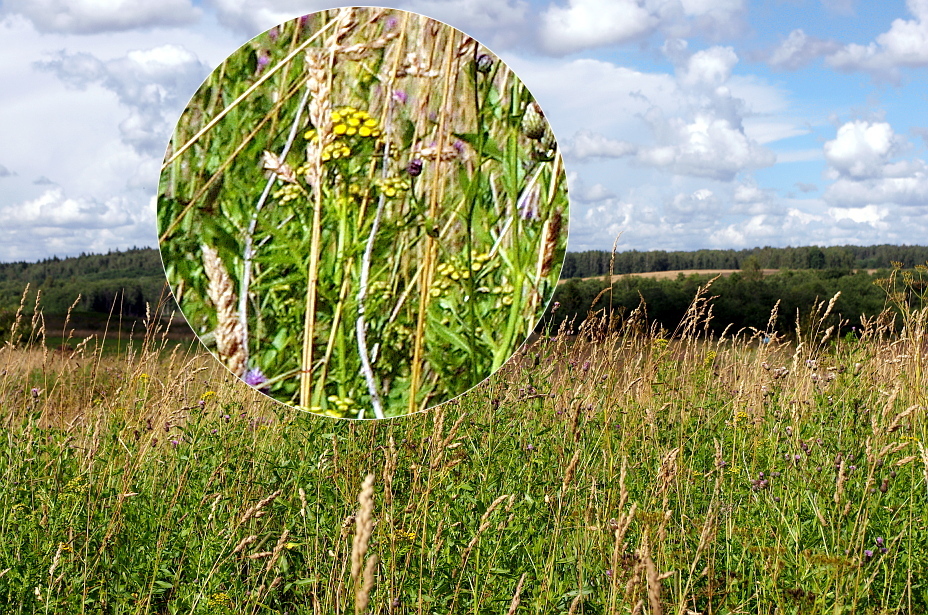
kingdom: Plantae
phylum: Tracheophyta
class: Magnoliopsida
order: Asterales
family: Asteraceae
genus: Tanacetum
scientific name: Tanacetum vulgare
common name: Common tansy
